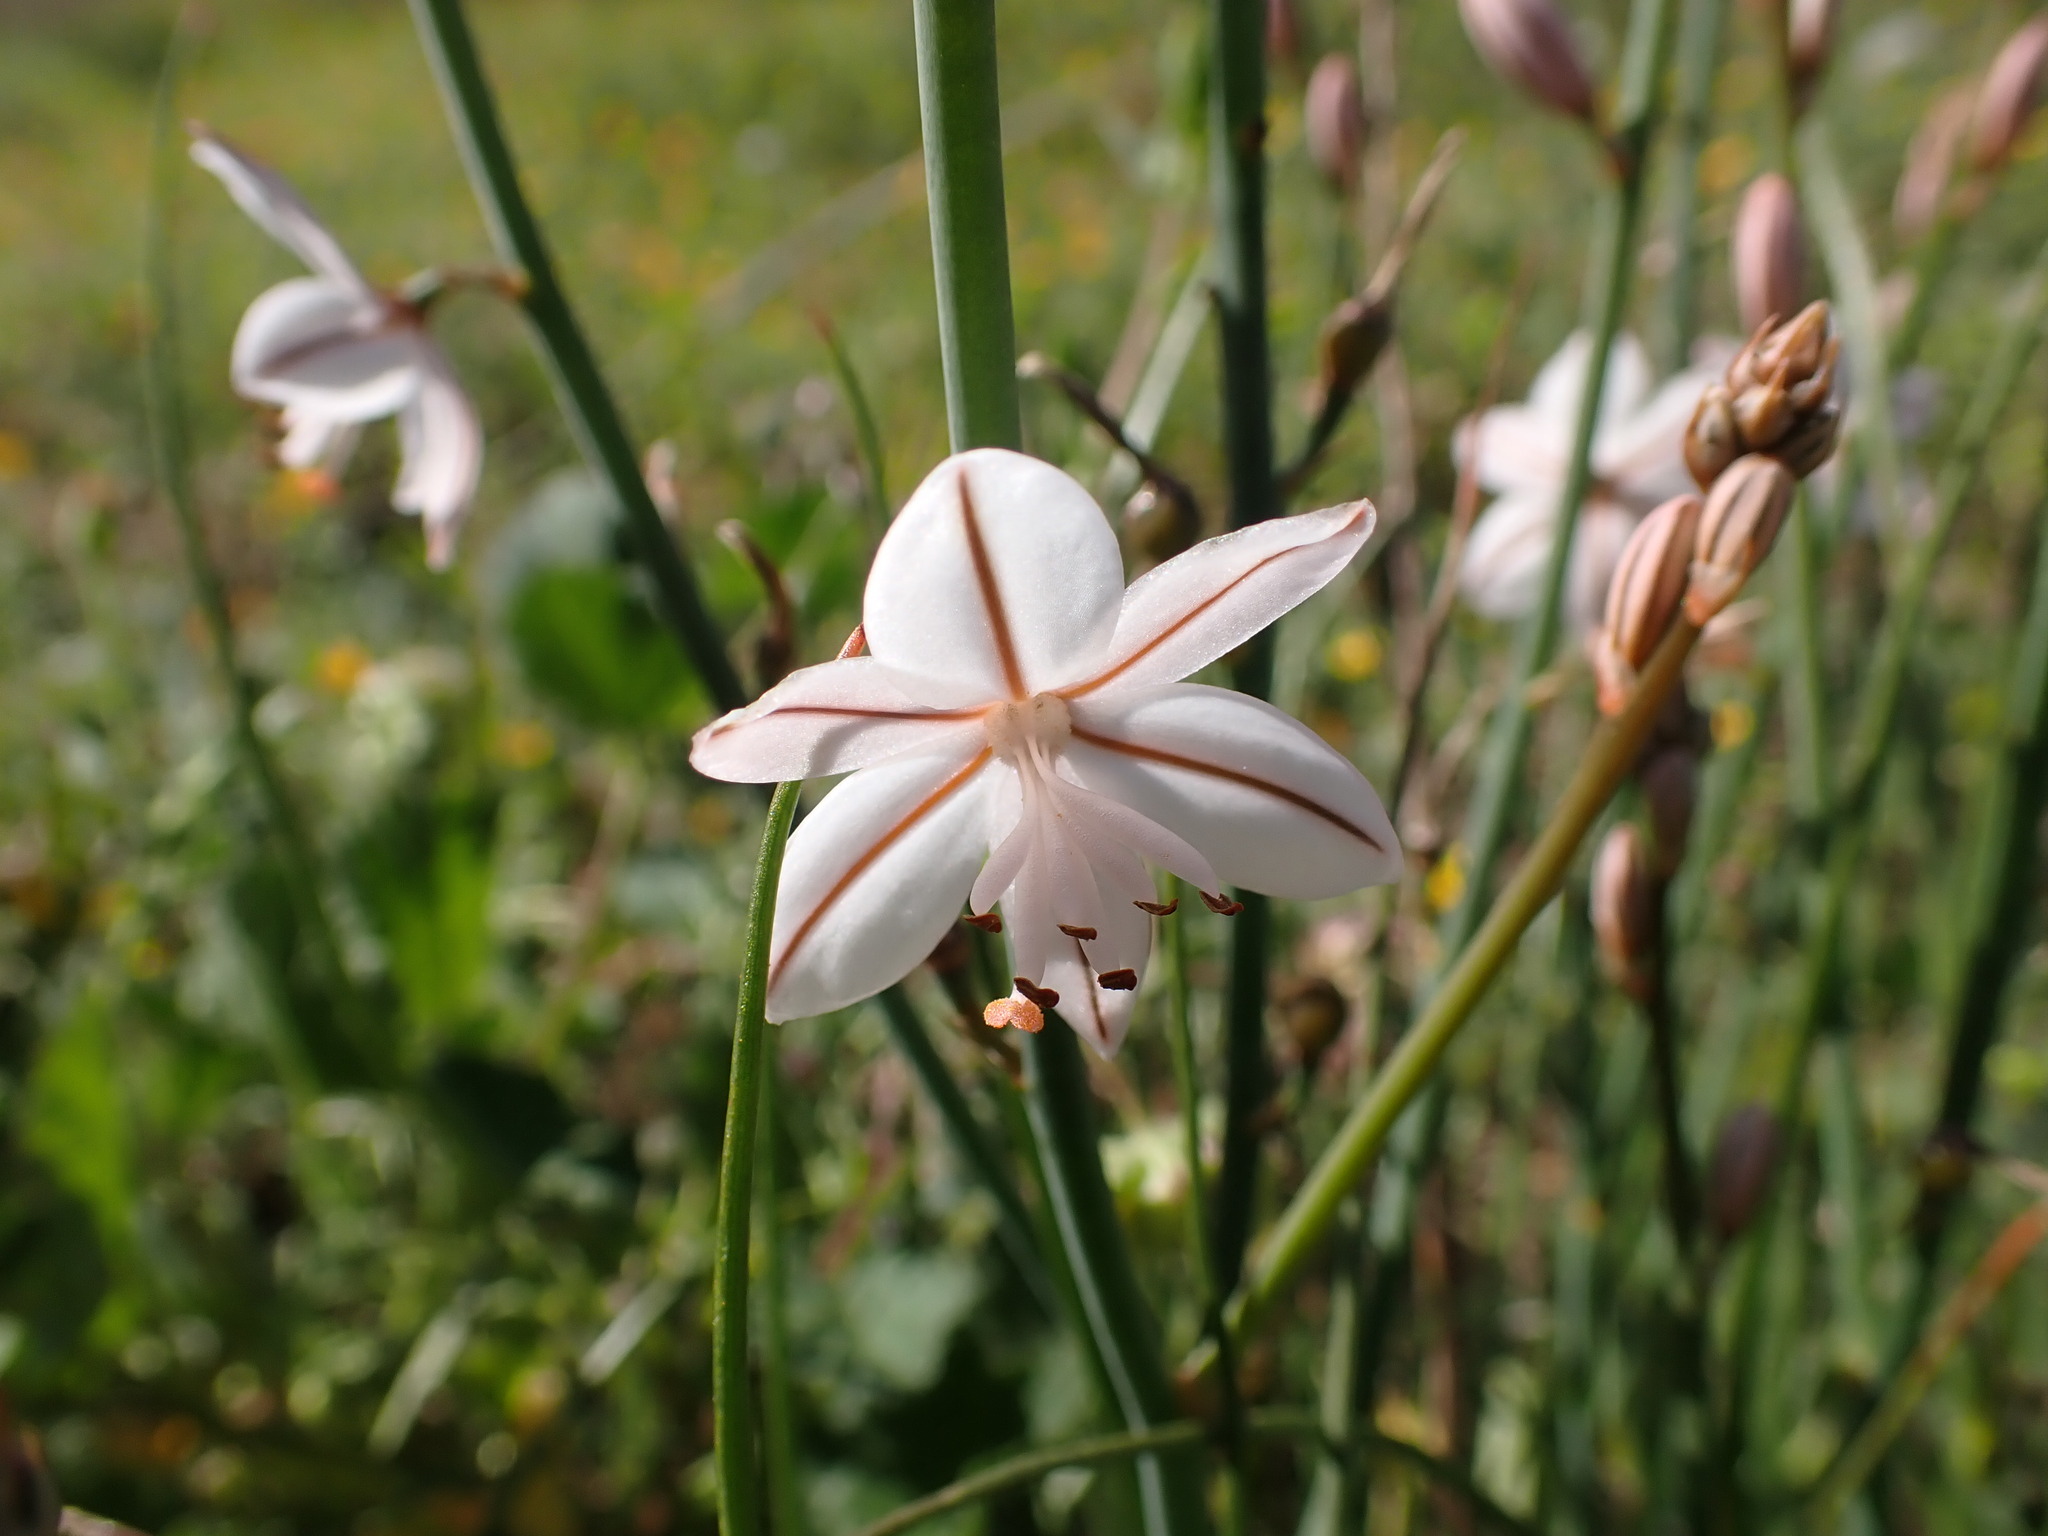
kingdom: Plantae
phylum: Tracheophyta
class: Liliopsida
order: Asparagales
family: Asphodelaceae
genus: Asphodelus
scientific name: Asphodelus fistulosus
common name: Onionweed
